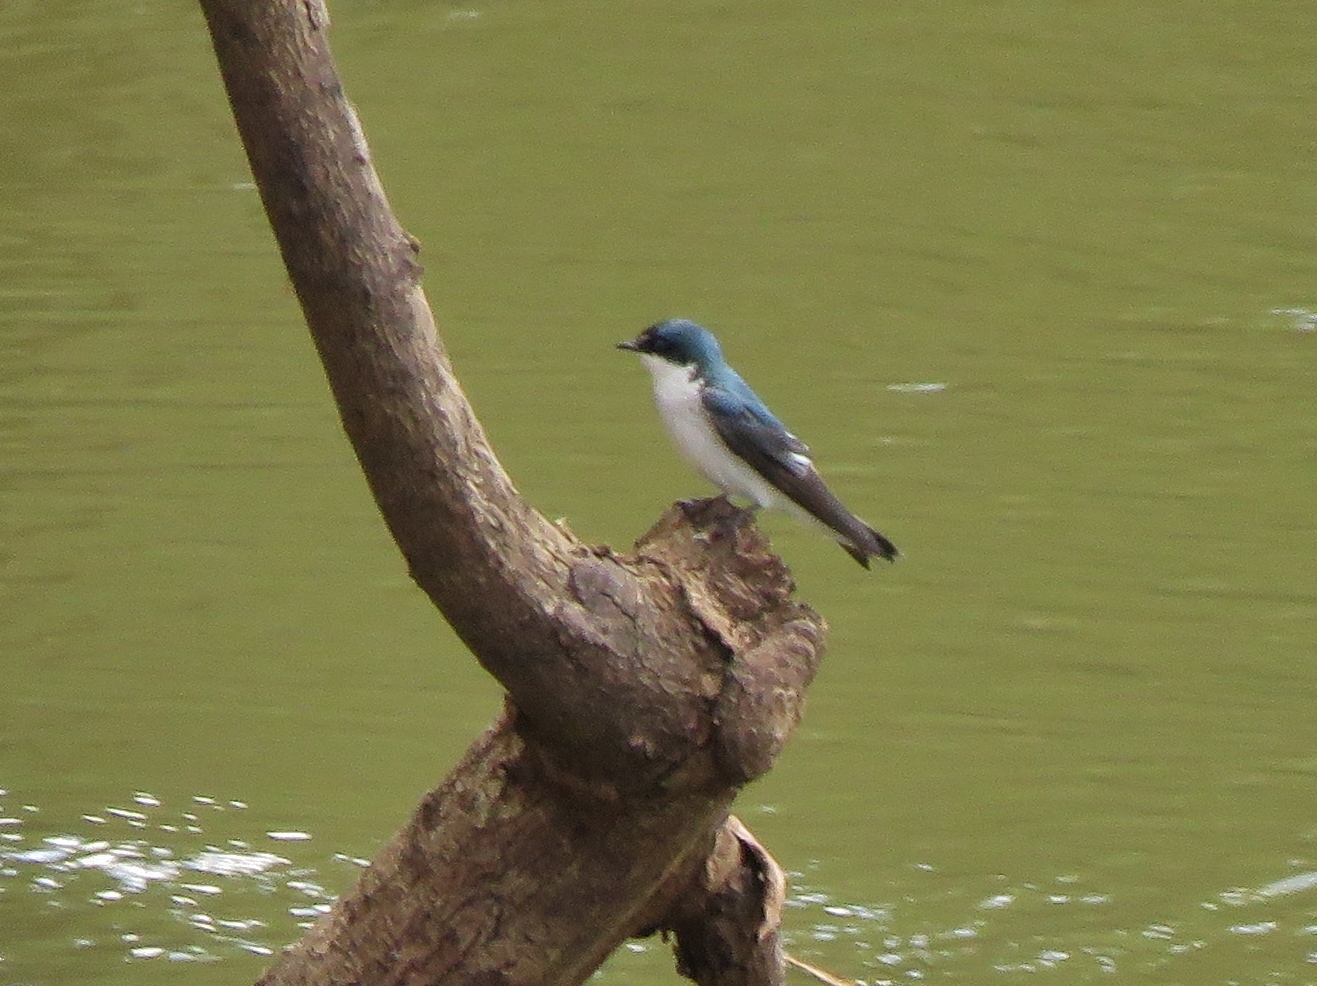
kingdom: Animalia
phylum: Chordata
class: Aves
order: Passeriformes
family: Hirundinidae
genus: Tachycineta
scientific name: Tachycineta albilinea
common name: Mangrove swallow
